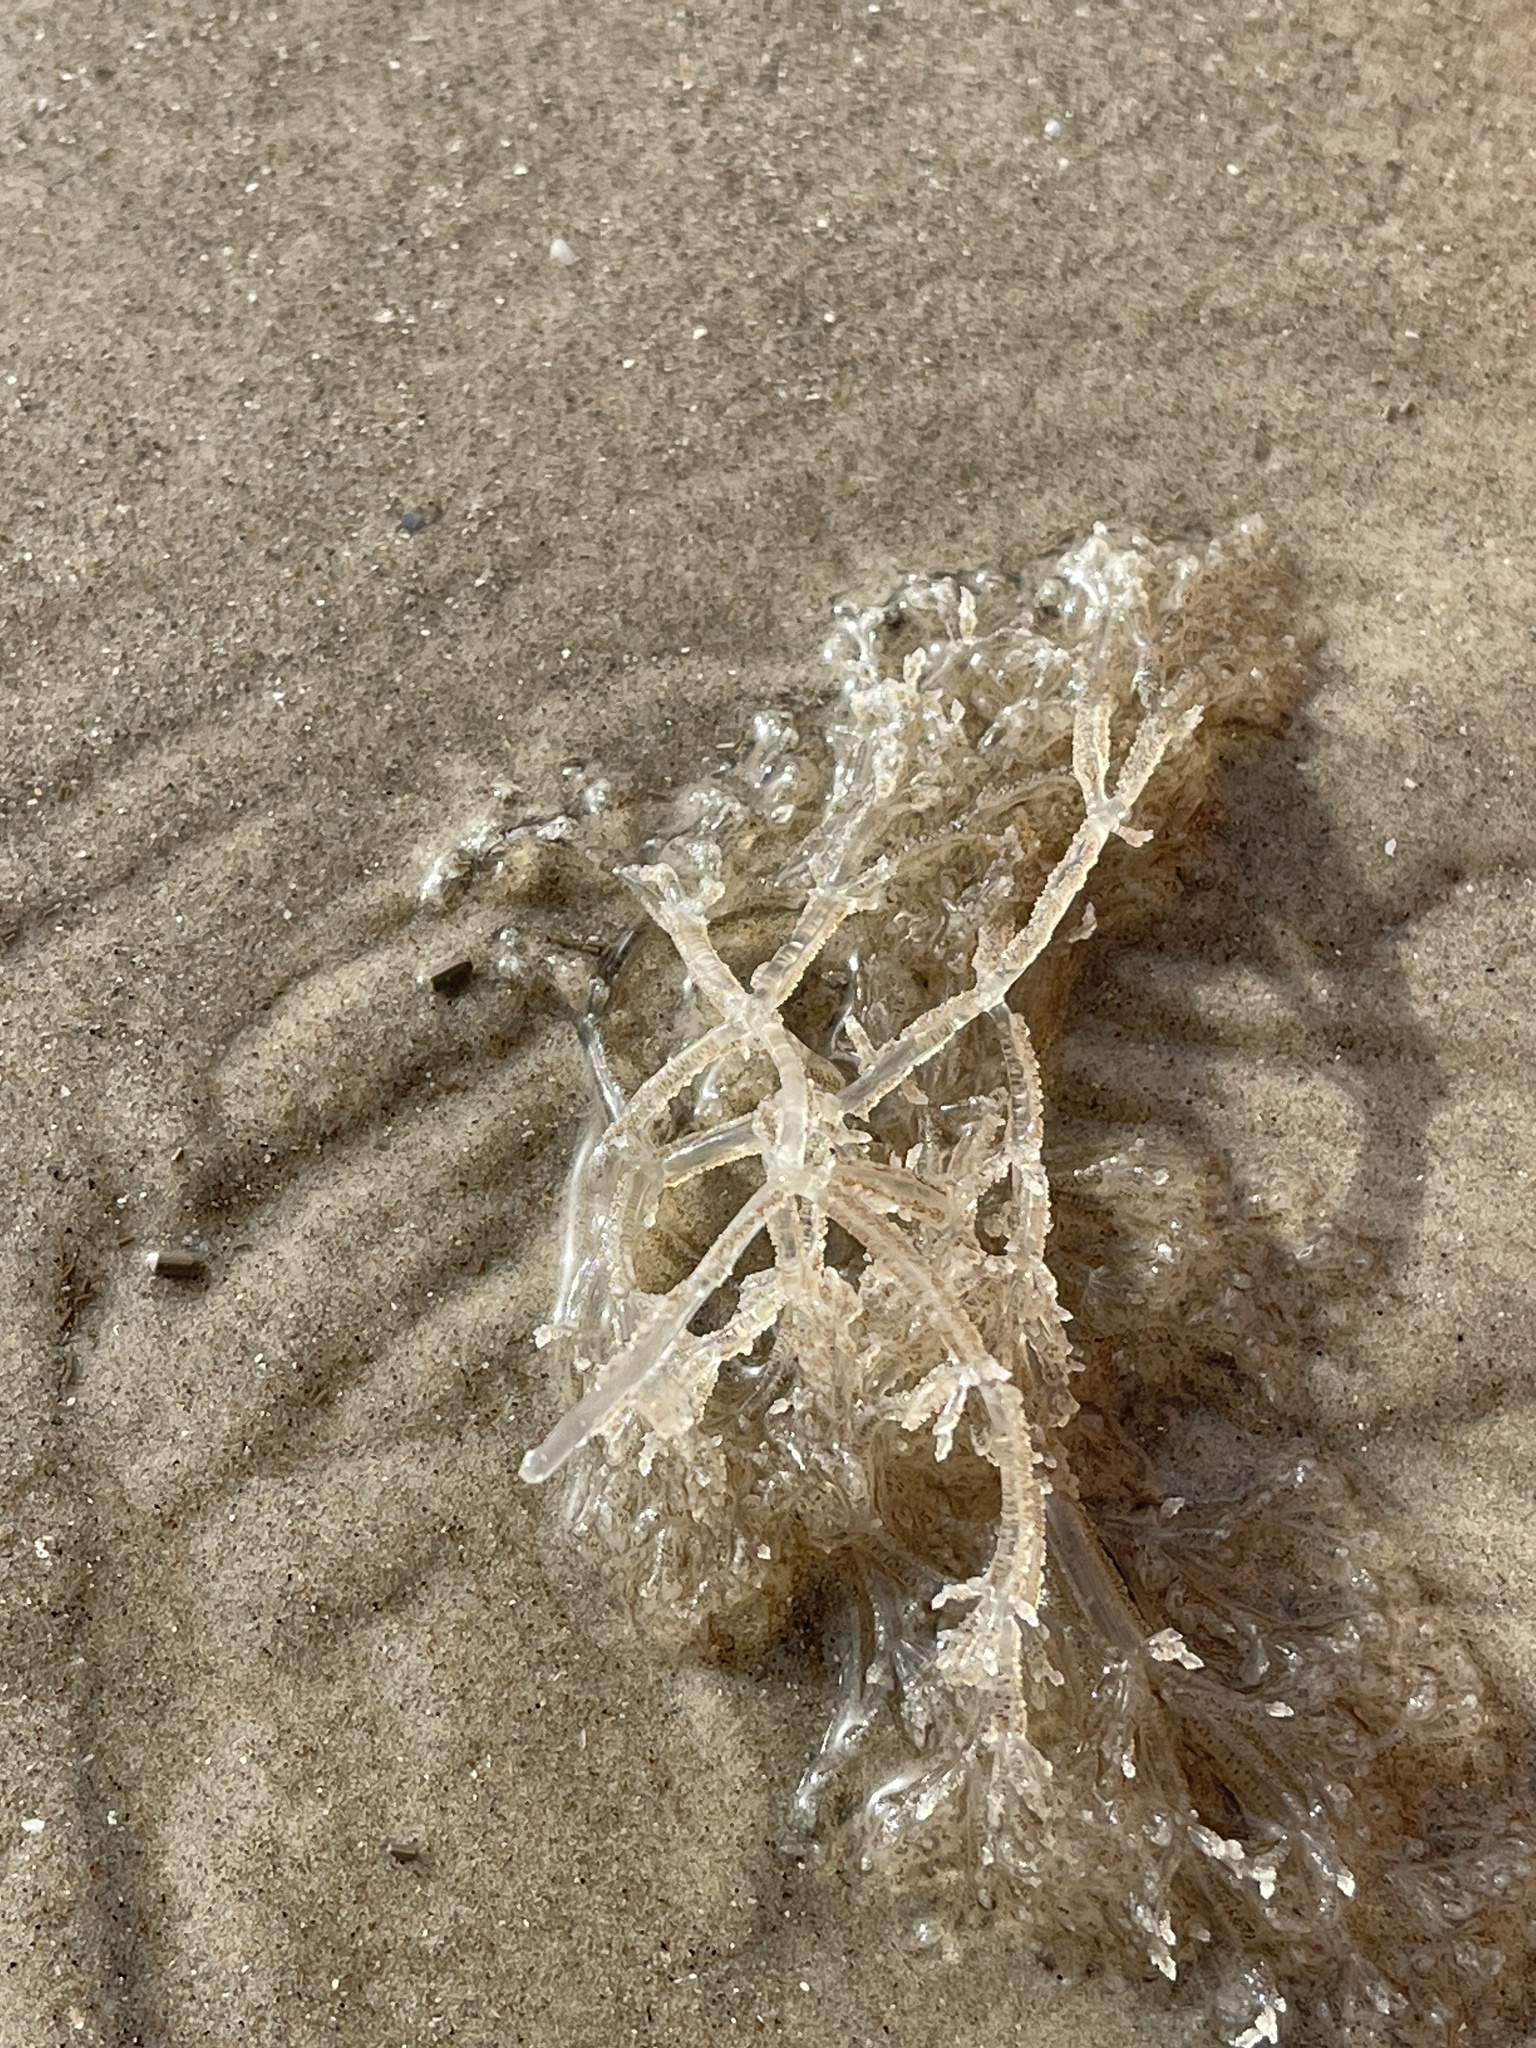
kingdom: Animalia
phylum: Bryozoa
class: Gymnolaemata
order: Ctenostomatida
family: Vesiculariidae
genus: Amathia
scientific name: Amathia verticillata
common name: Whorled zoobotryon
